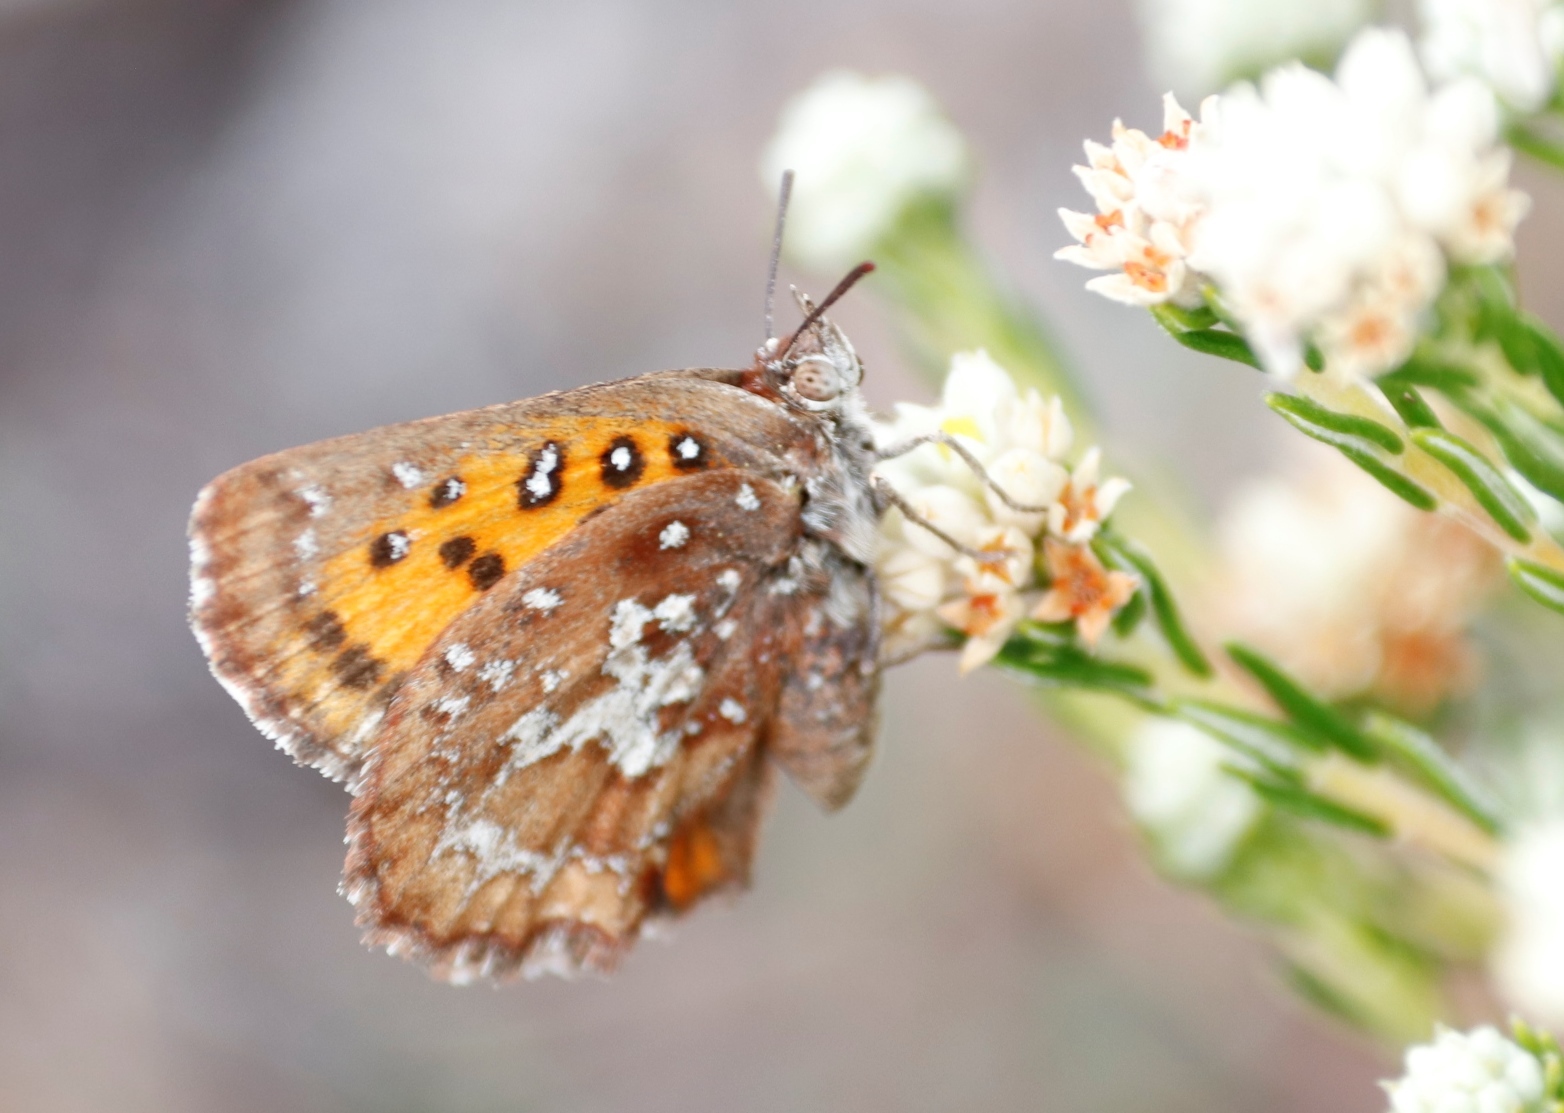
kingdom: Animalia
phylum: Arthropoda
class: Insecta
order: Lepidoptera
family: Lycaenidae
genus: Aloeides
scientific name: Aloeides thyra
